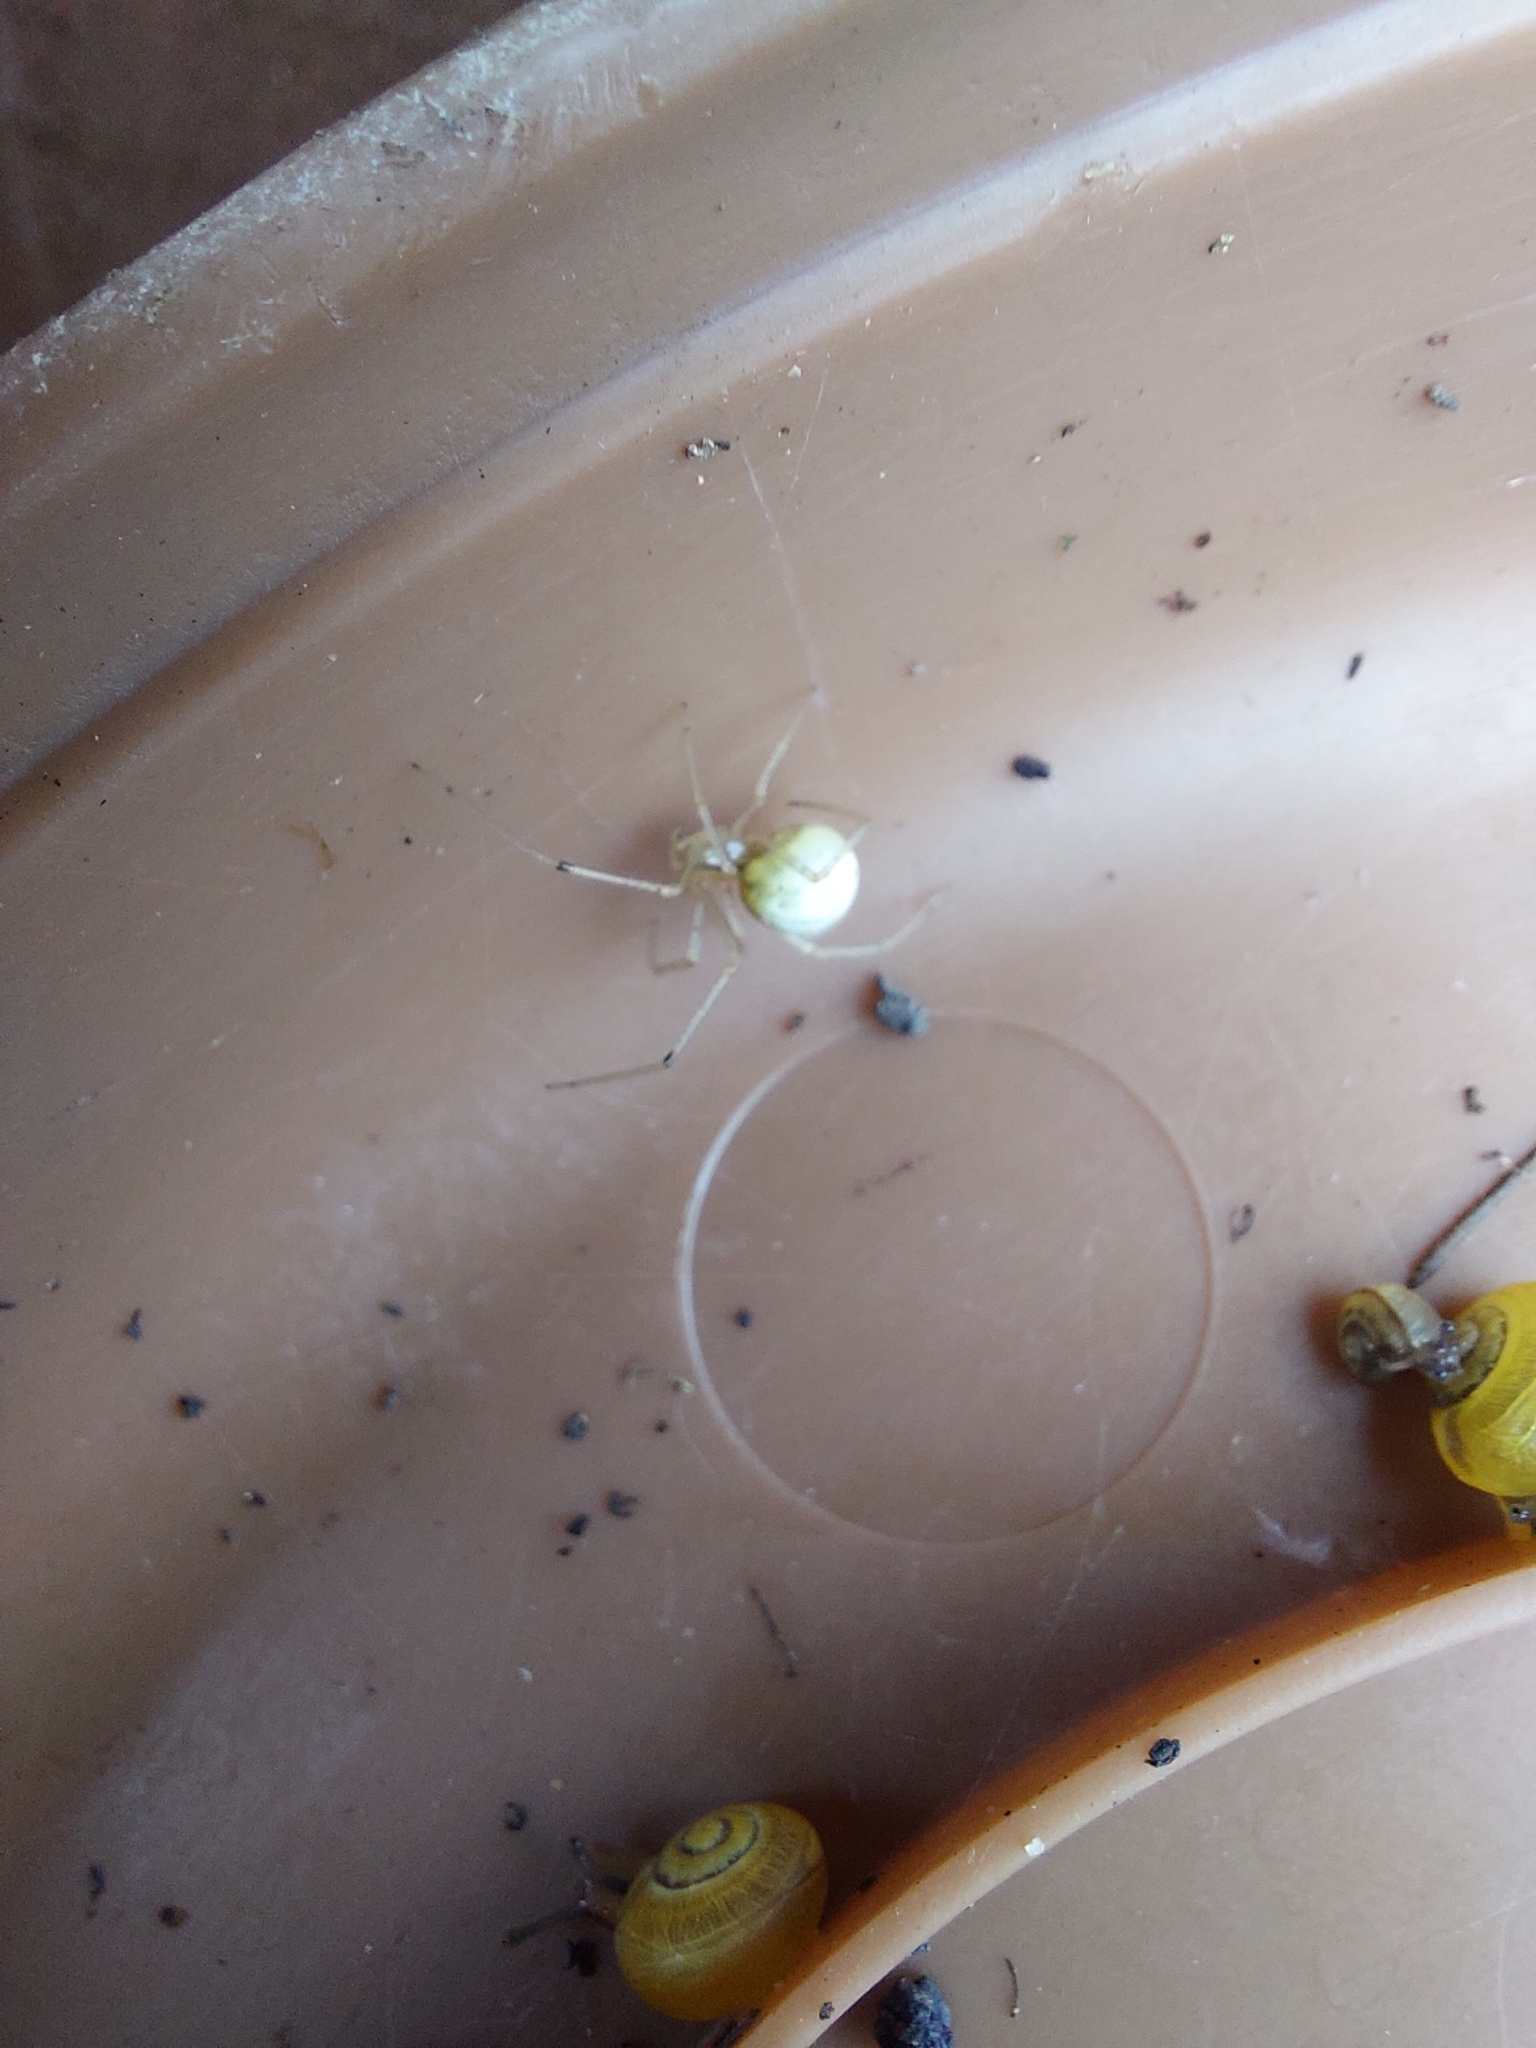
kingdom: Animalia
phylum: Arthropoda
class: Arachnida
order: Araneae
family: Theridiidae
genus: Enoplognatha
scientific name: Enoplognatha ovata
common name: Common candy-striped spider
